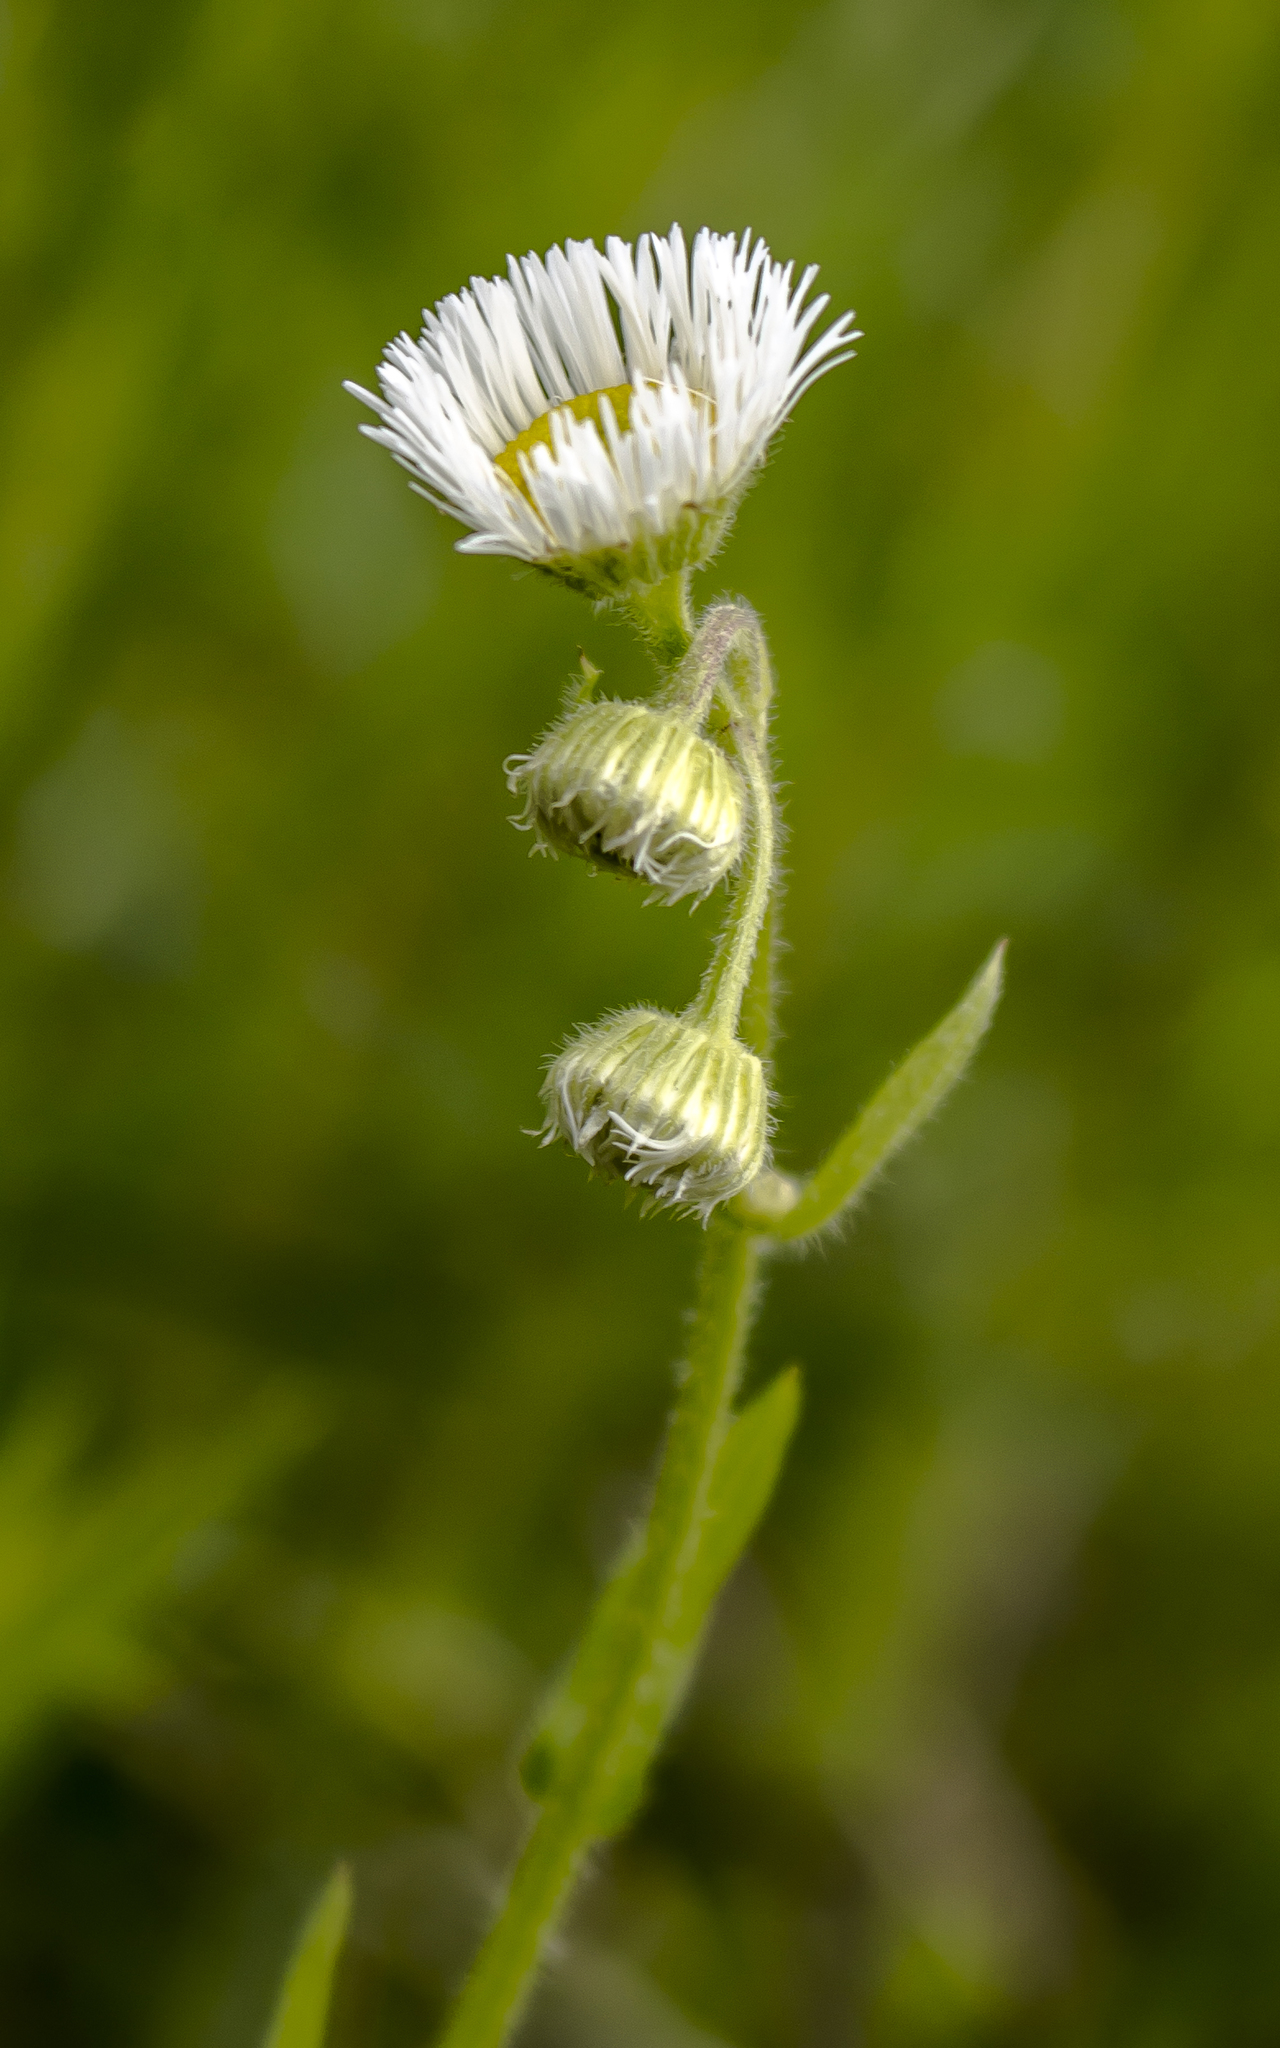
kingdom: Plantae
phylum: Tracheophyta
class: Magnoliopsida
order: Asterales
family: Asteraceae
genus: Erigeron
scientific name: Erigeron philadelphicus
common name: Robin's-plantain
